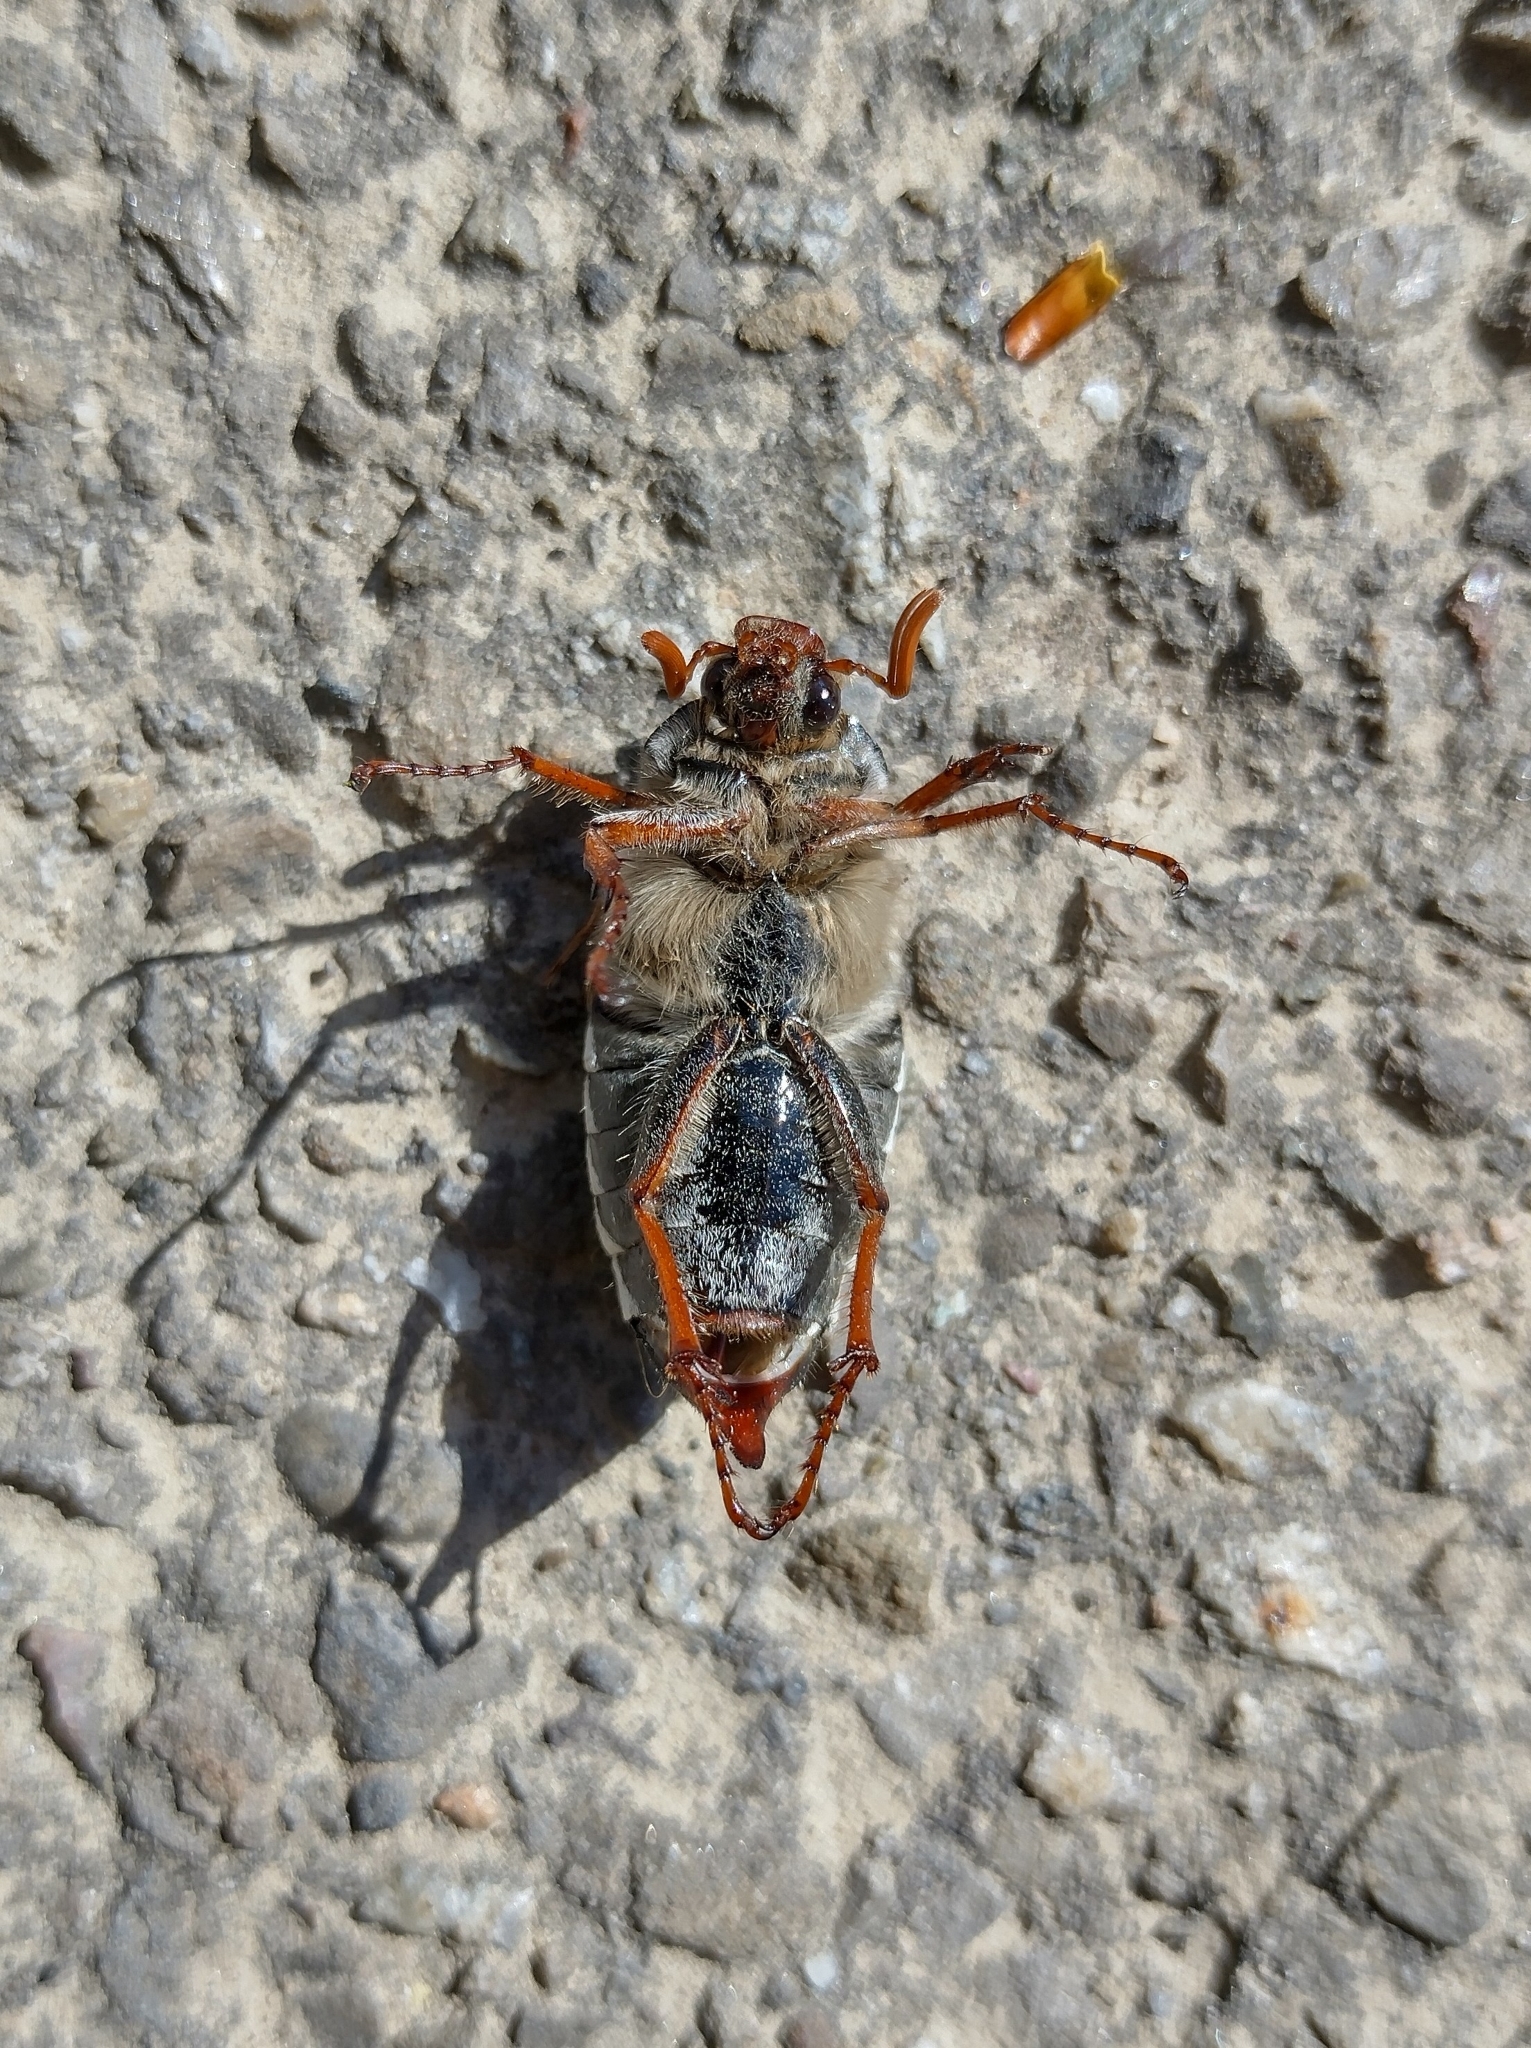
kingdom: Animalia
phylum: Arthropoda
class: Insecta
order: Coleoptera
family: Scarabaeidae
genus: Melolontha
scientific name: Melolontha melolontha
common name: Cockchafer maybeetle
